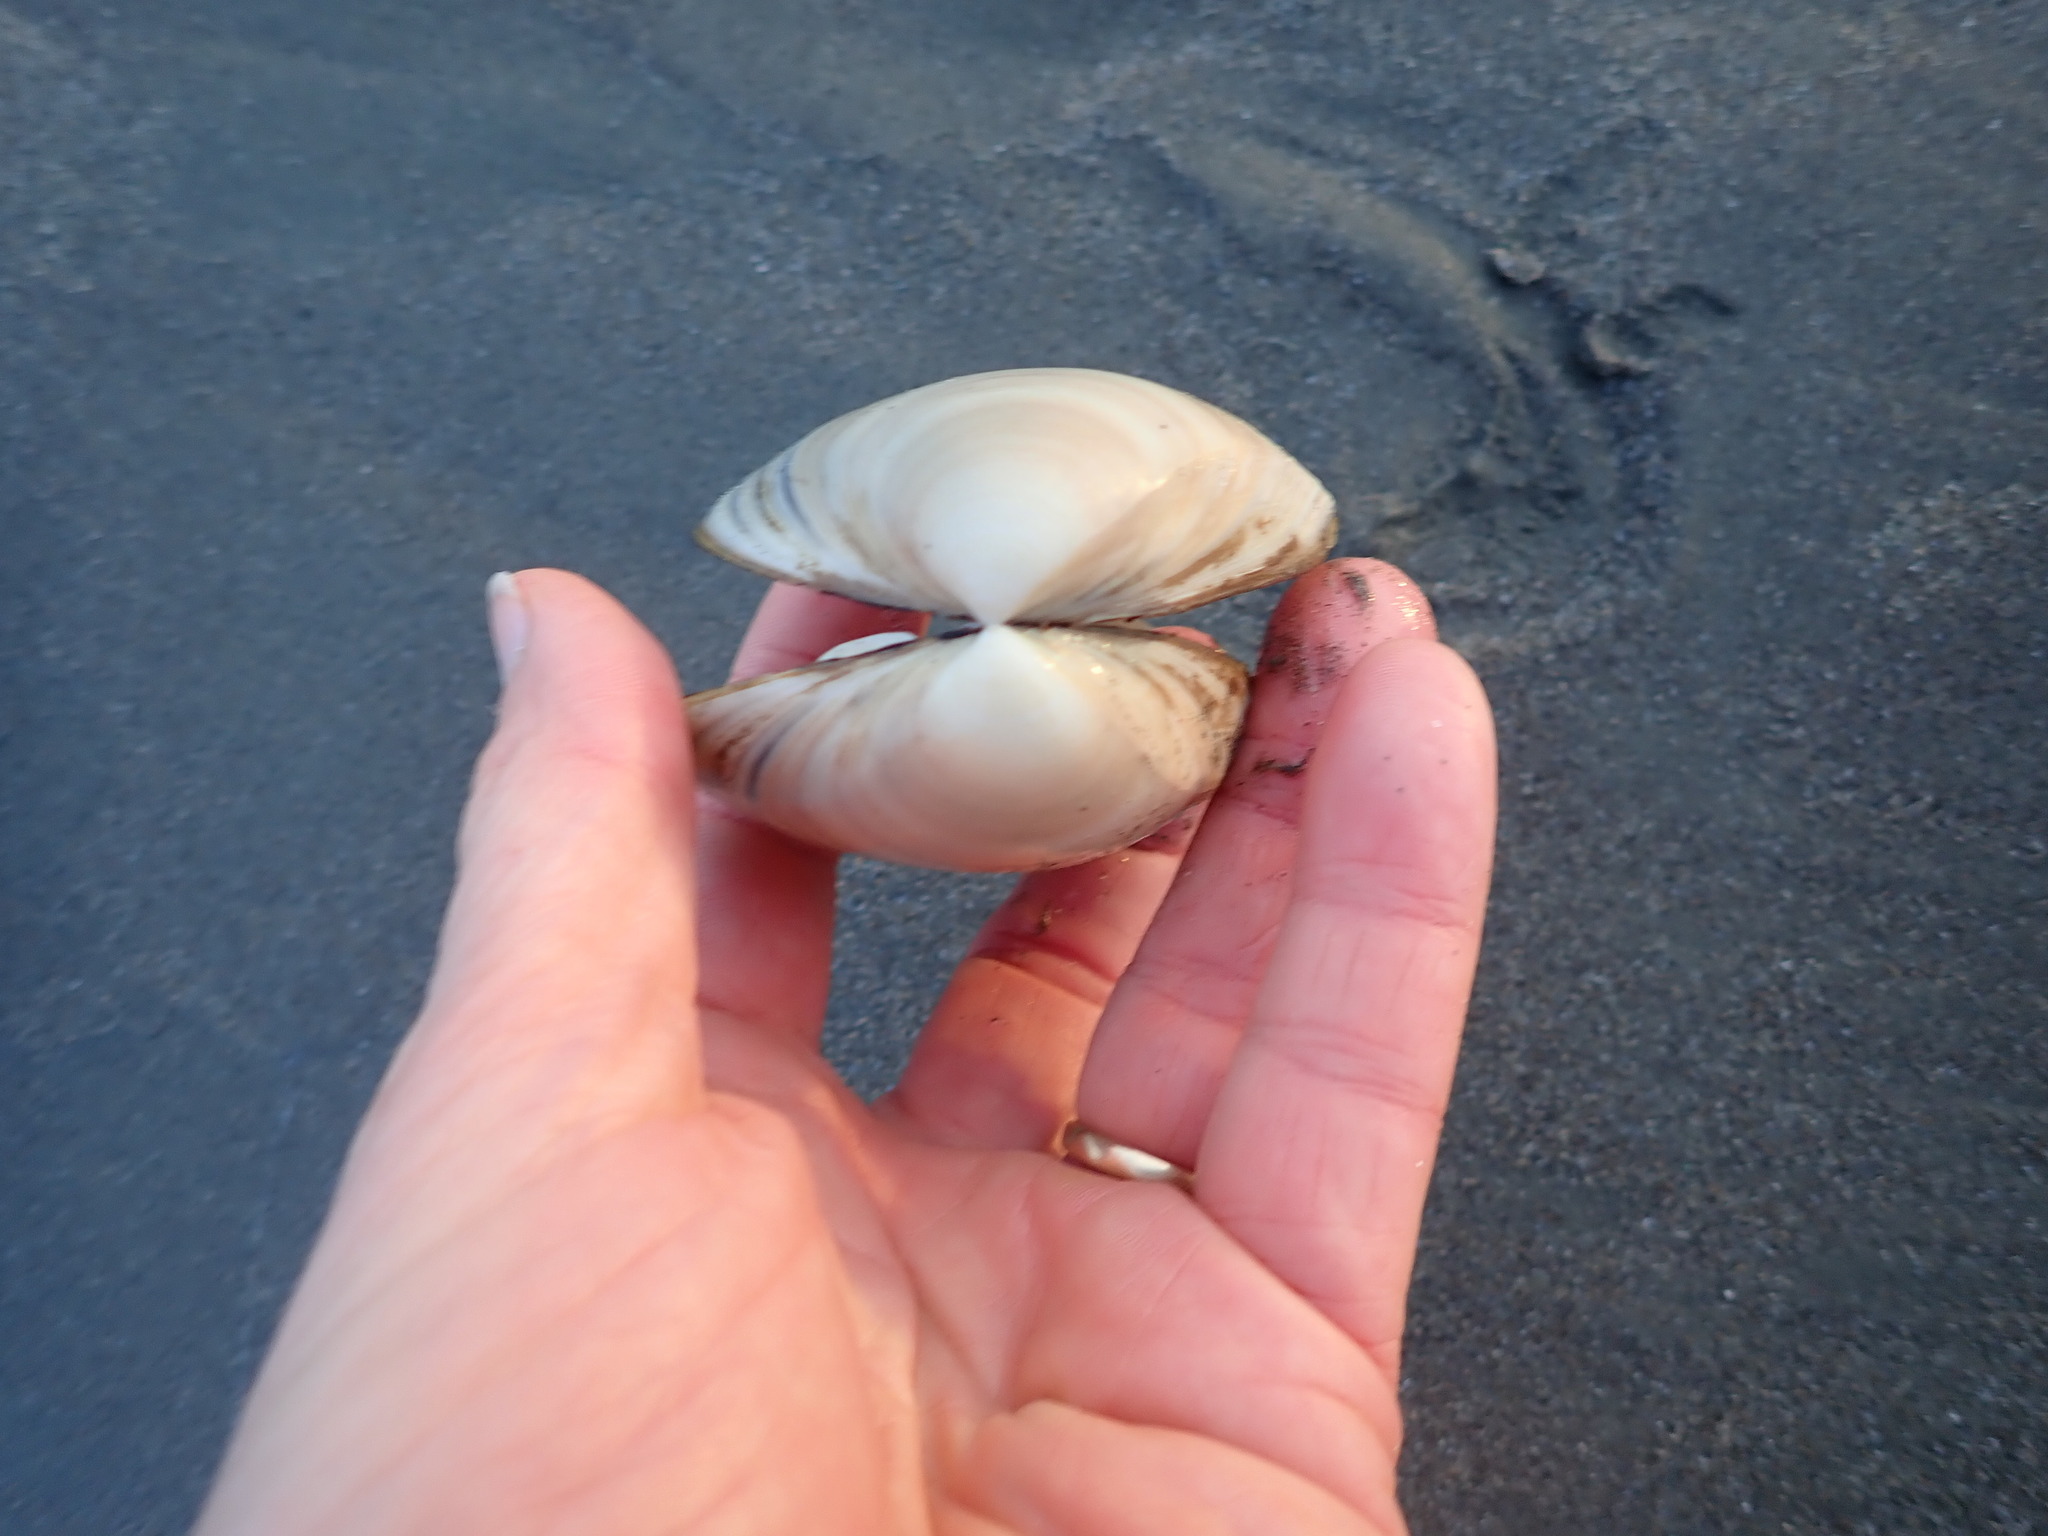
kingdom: Animalia
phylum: Mollusca
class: Bivalvia
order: Venerida
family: Mactridae
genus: Spisula
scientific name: Spisula murchisoni
